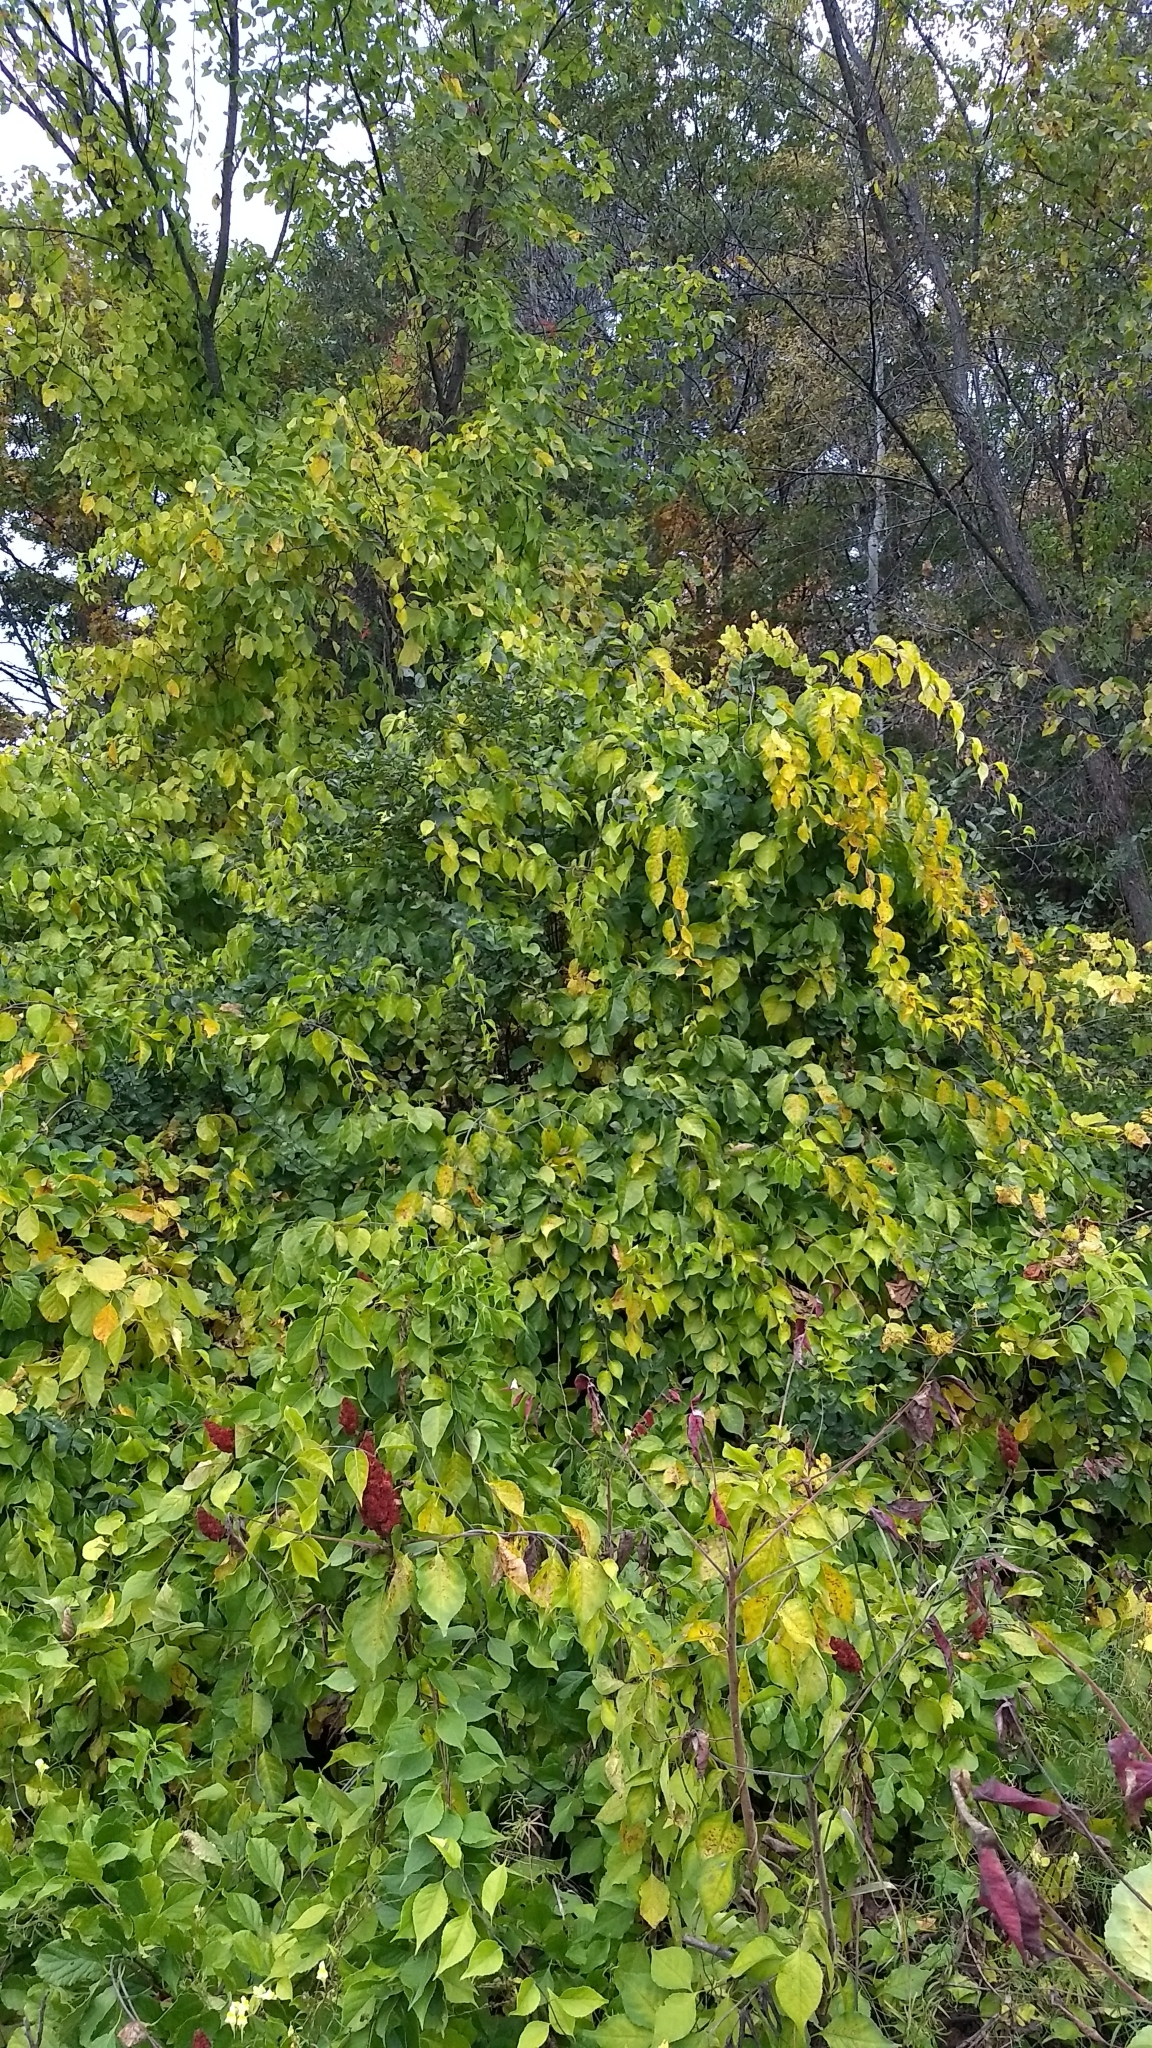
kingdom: Plantae
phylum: Tracheophyta
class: Magnoliopsida
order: Celastrales
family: Celastraceae
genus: Celastrus
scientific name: Celastrus orbiculatus
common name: Oriental bittersweet
